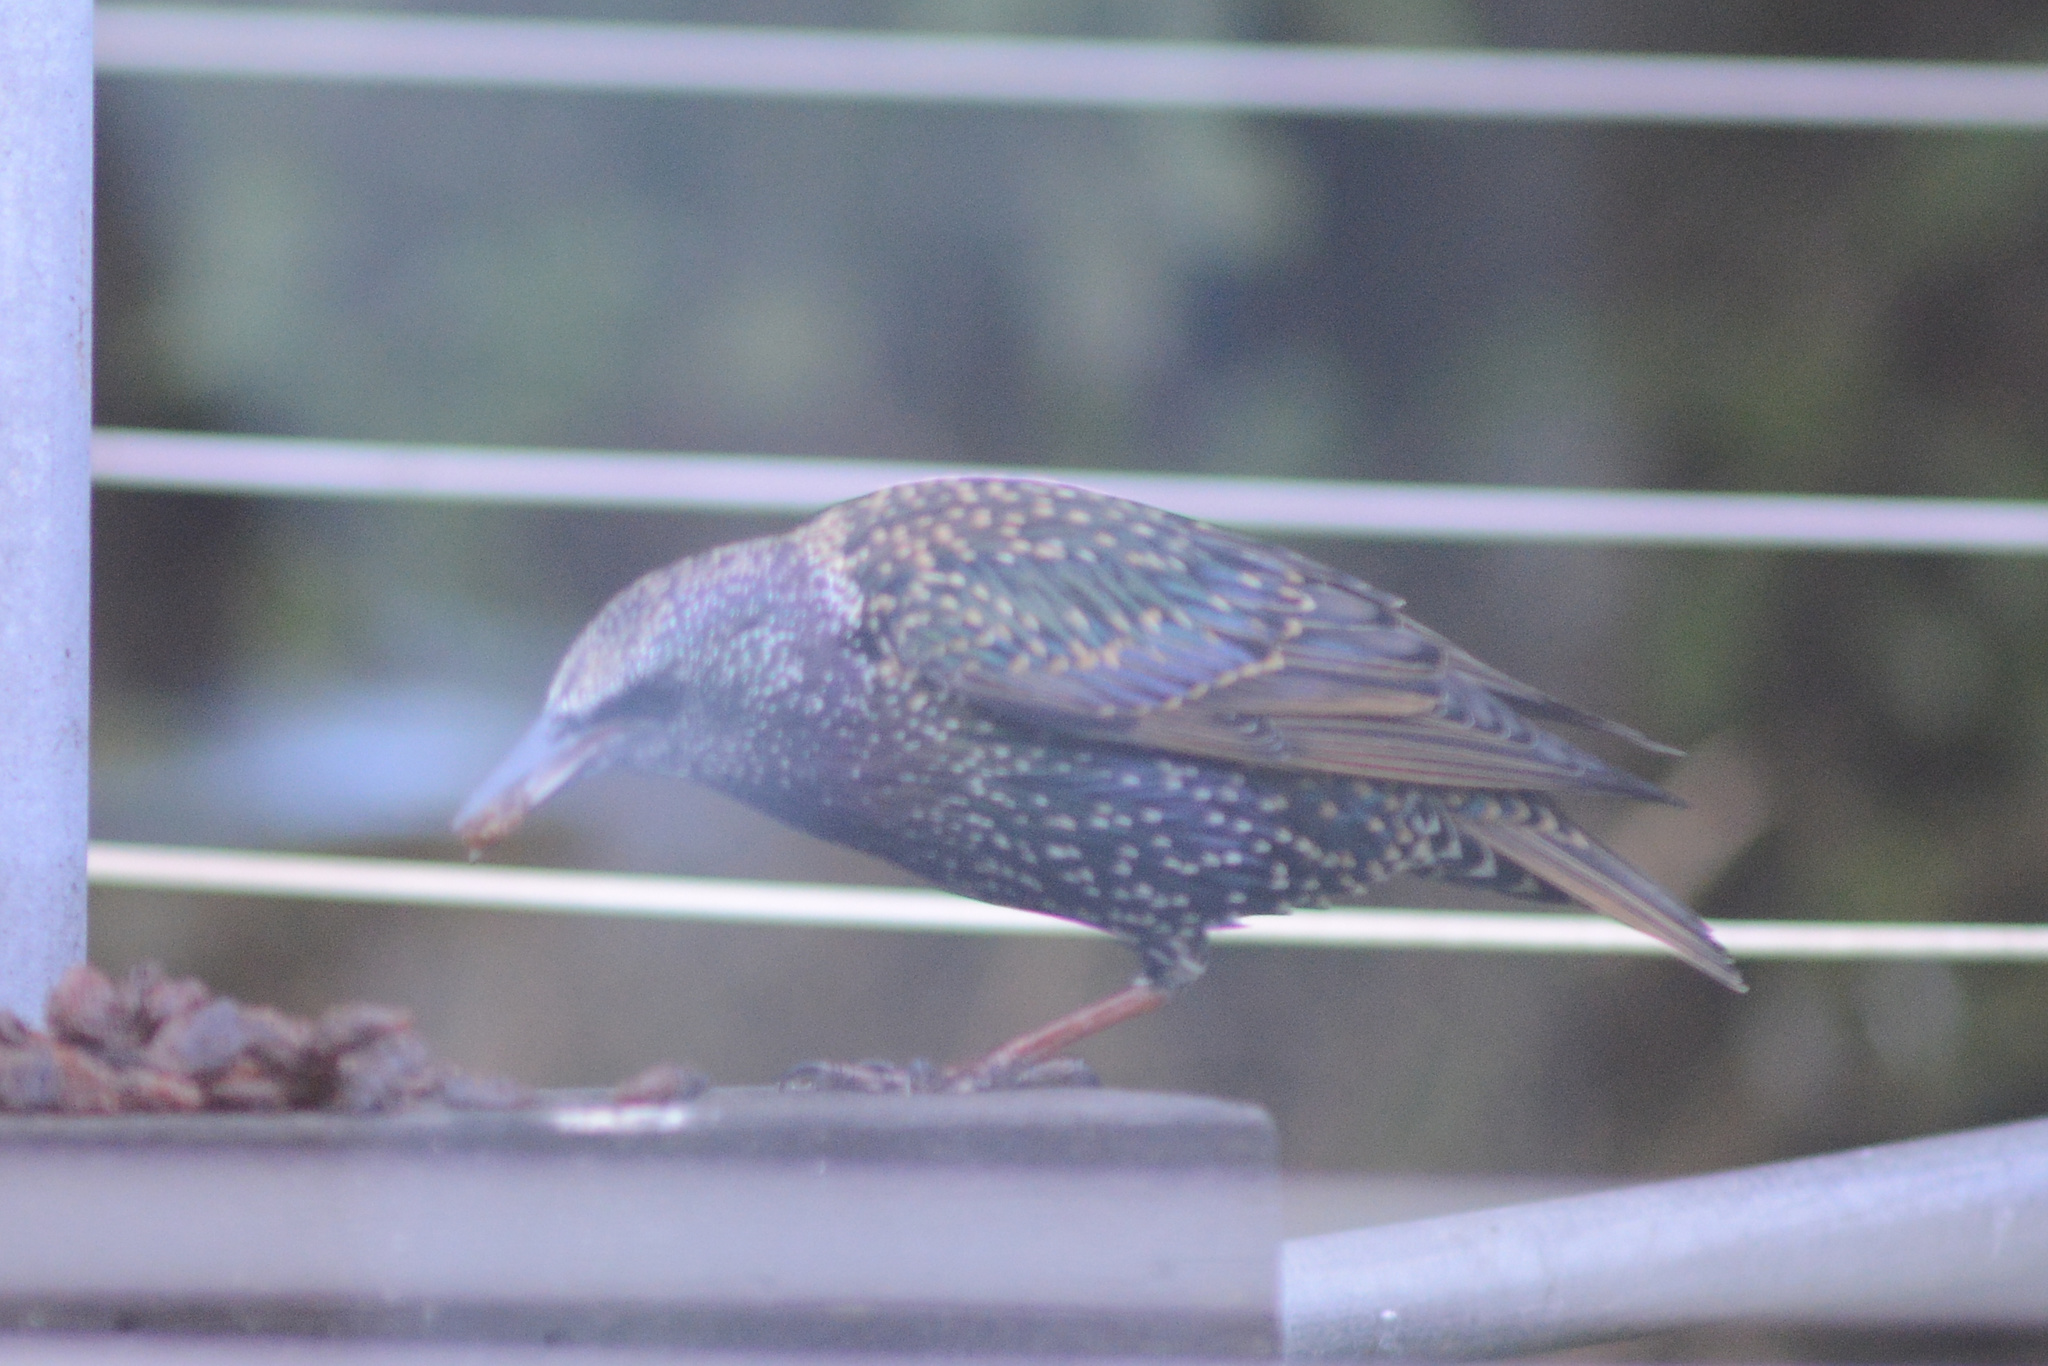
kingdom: Animalia
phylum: Chordata
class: Aves
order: Passeriformes
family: Sturnidae
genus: Sturnus
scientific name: Sturnus vulgaris
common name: Common starling
